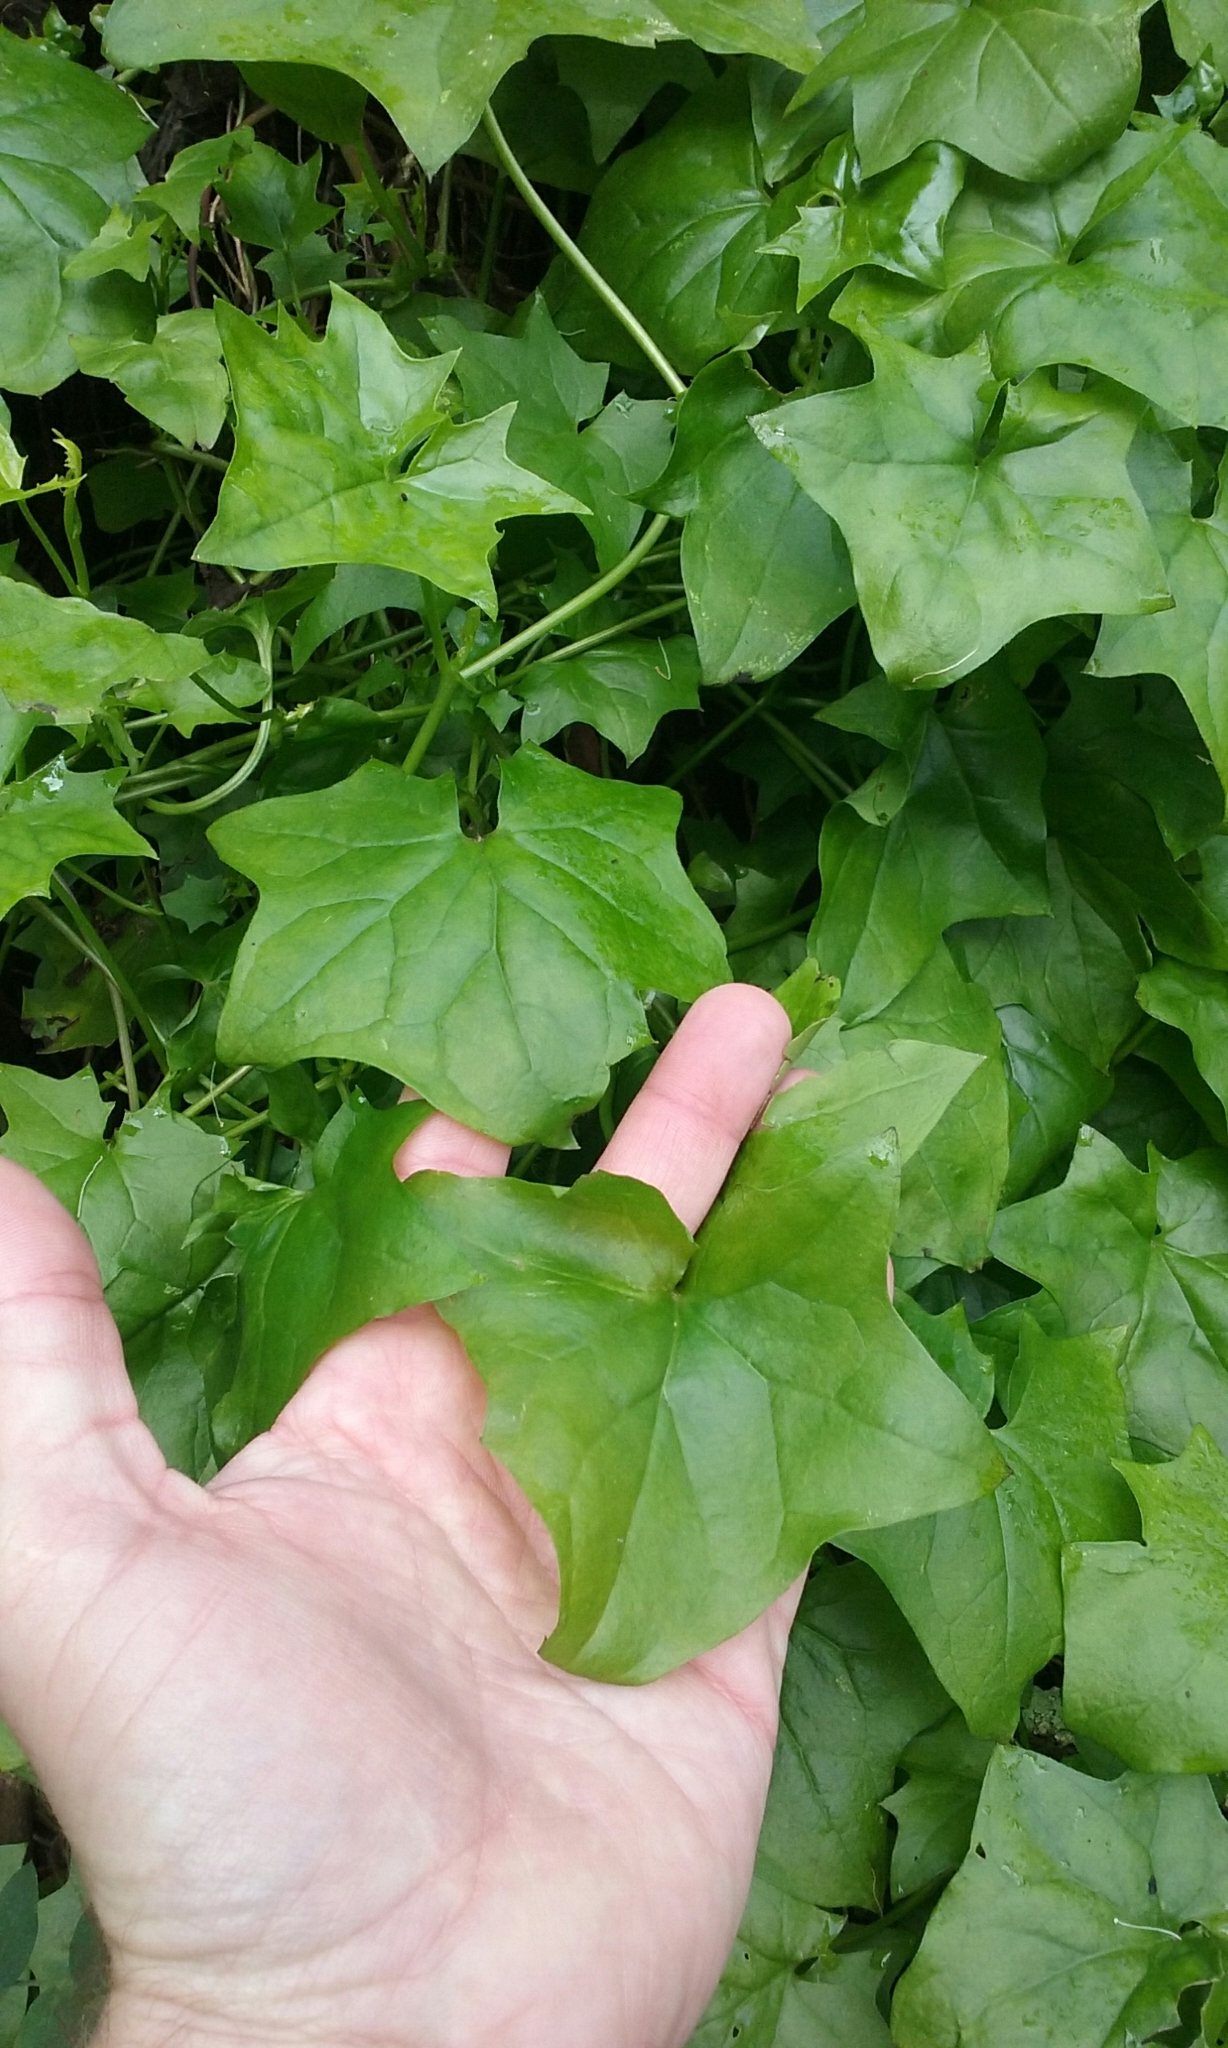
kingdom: Plantae
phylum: Tracheophyta
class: Magnoliopsida
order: Asterales
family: Asteraceae
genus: Delairea
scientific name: Delairea odorata
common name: Cape-ivy
